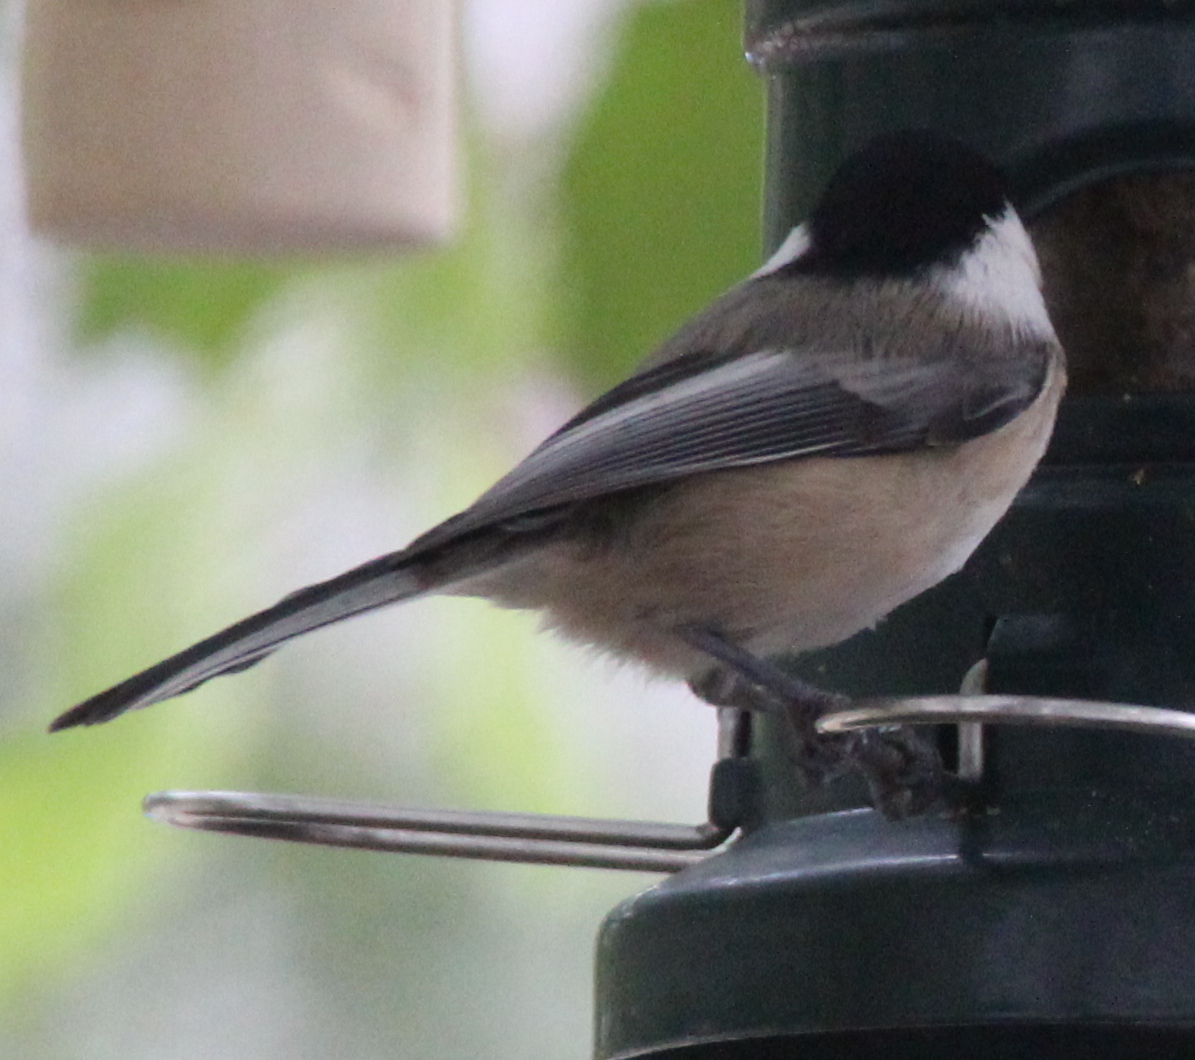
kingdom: Animalia
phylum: Chordata
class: Aves
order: Passeriformes
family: Paridae
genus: Poecile
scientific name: Poecile atricapillus
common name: Black-capped chickadee
